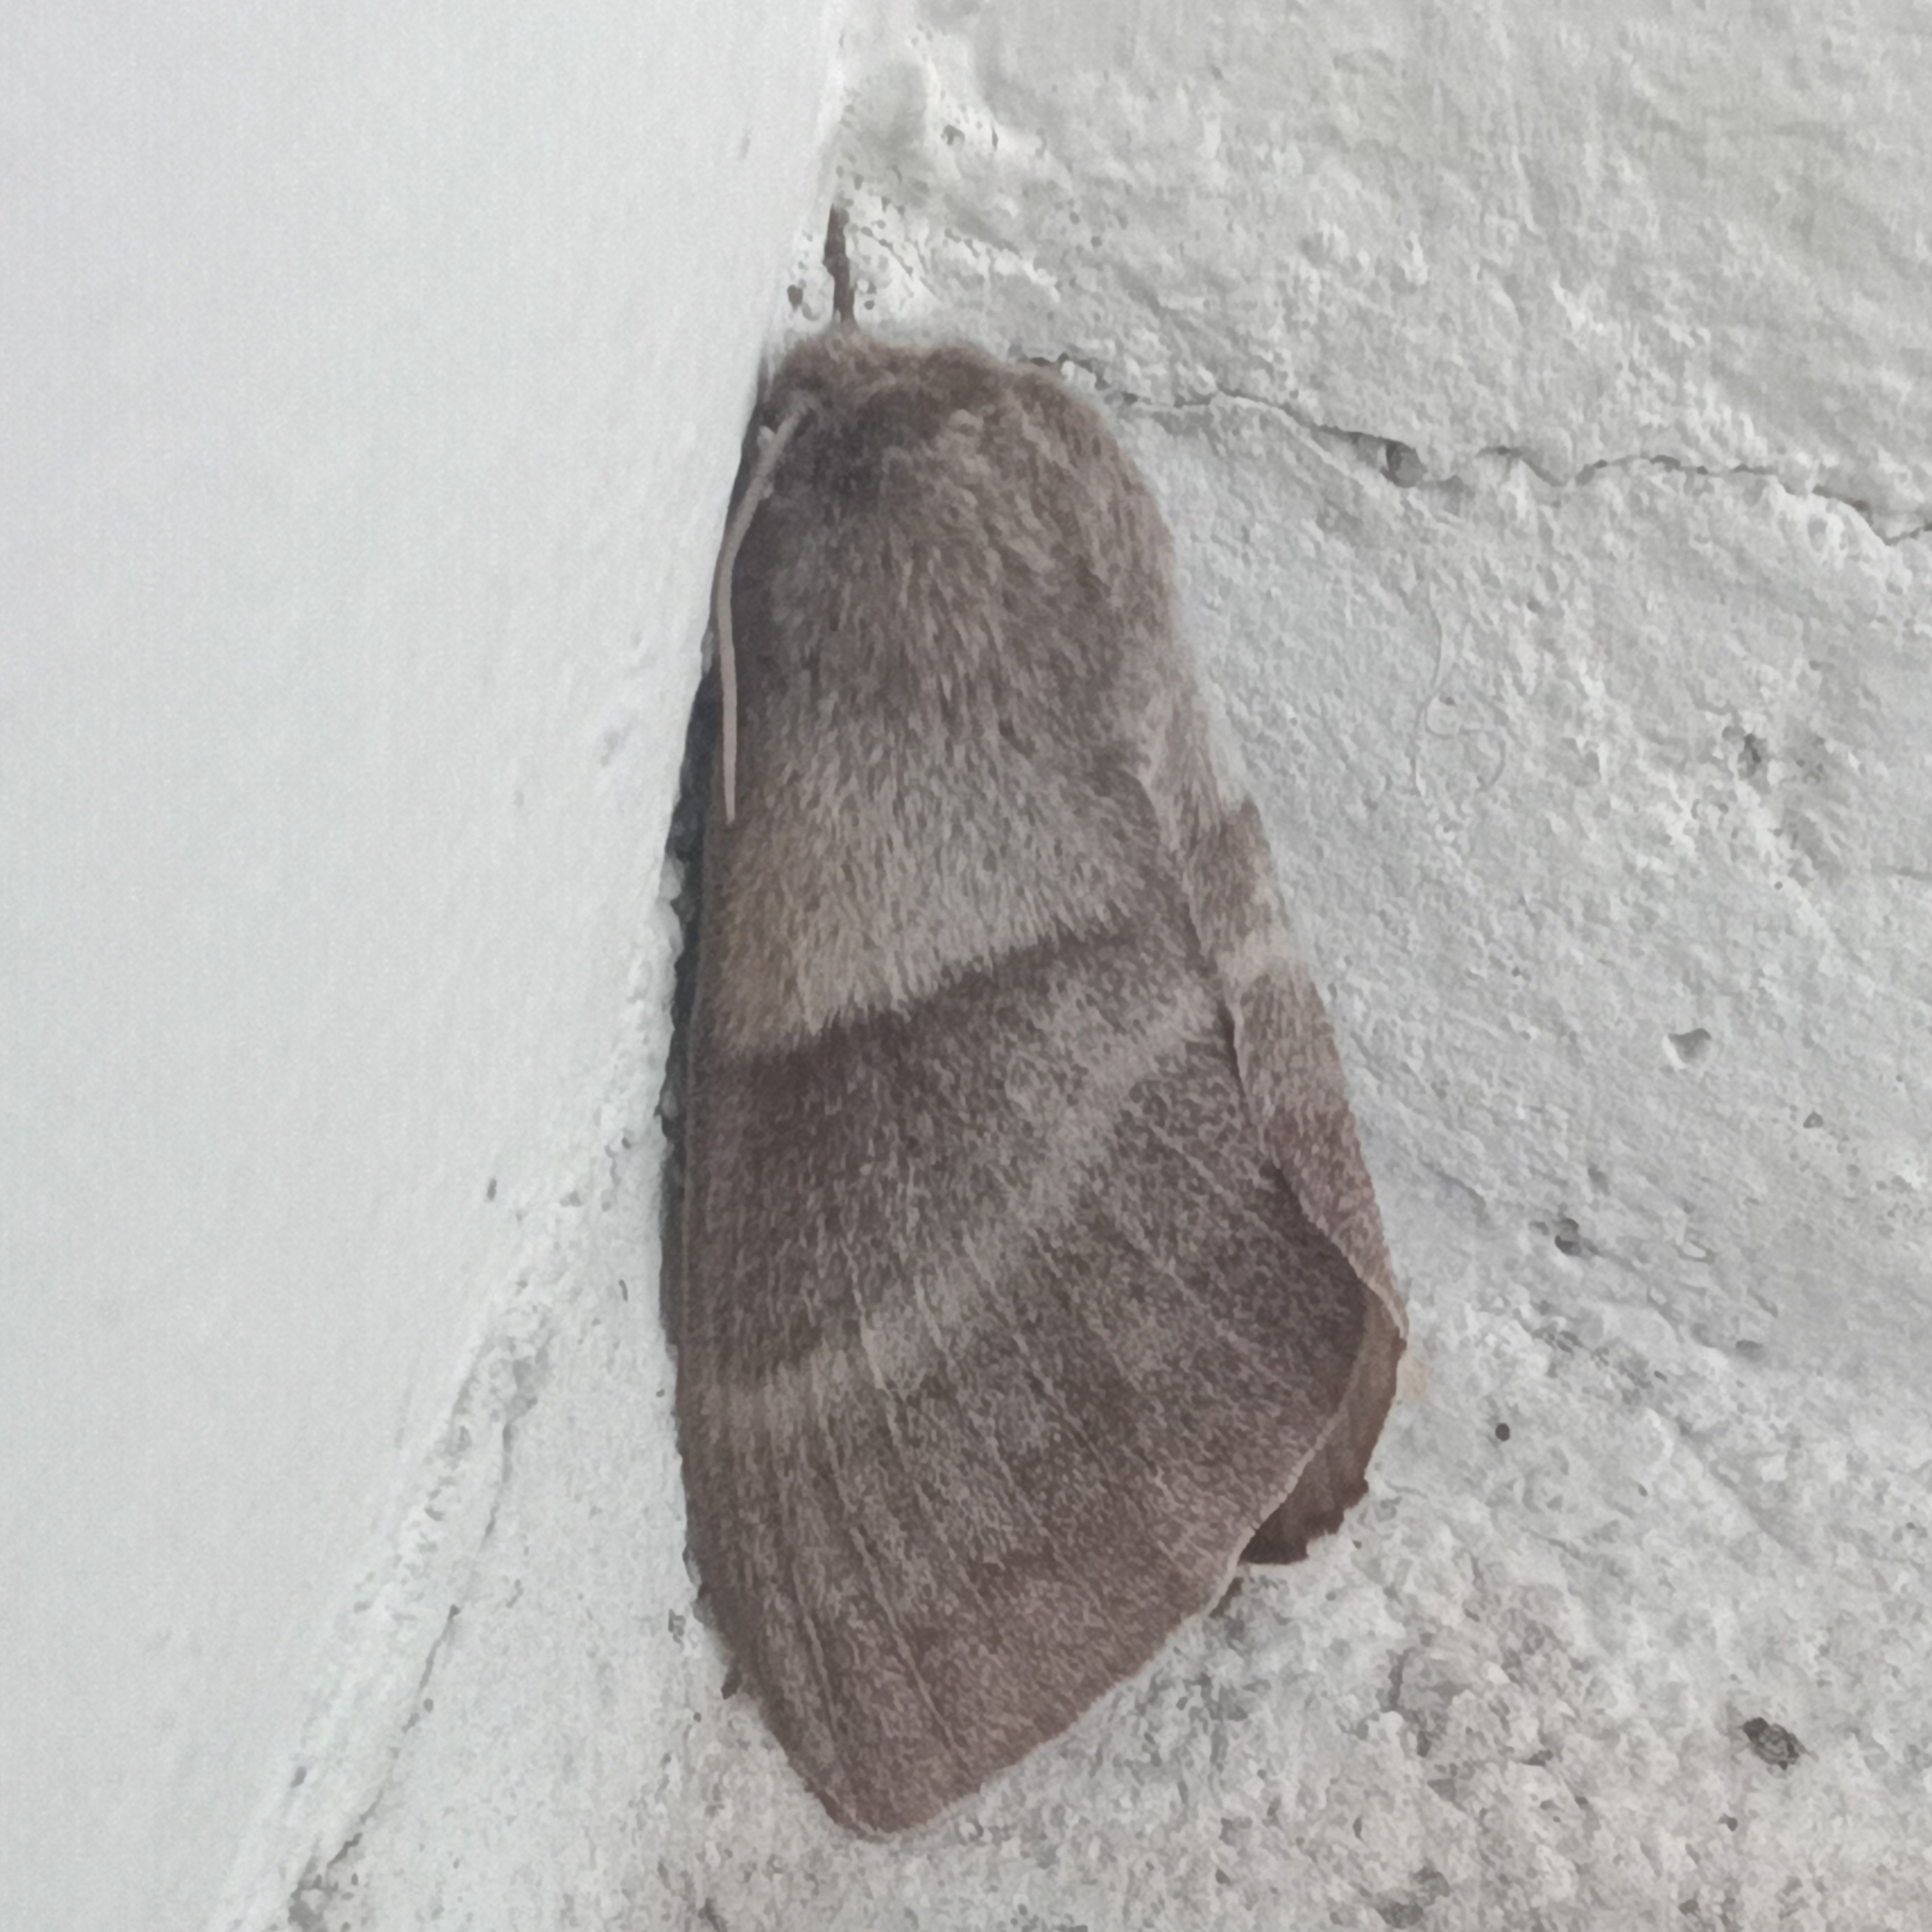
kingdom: Animalia
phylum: Arthropoda
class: Insecta
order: Lepidoptera
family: Lasiocampidae
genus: Macrothylacia
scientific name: Macrothylacia rubi
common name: Fox moth
